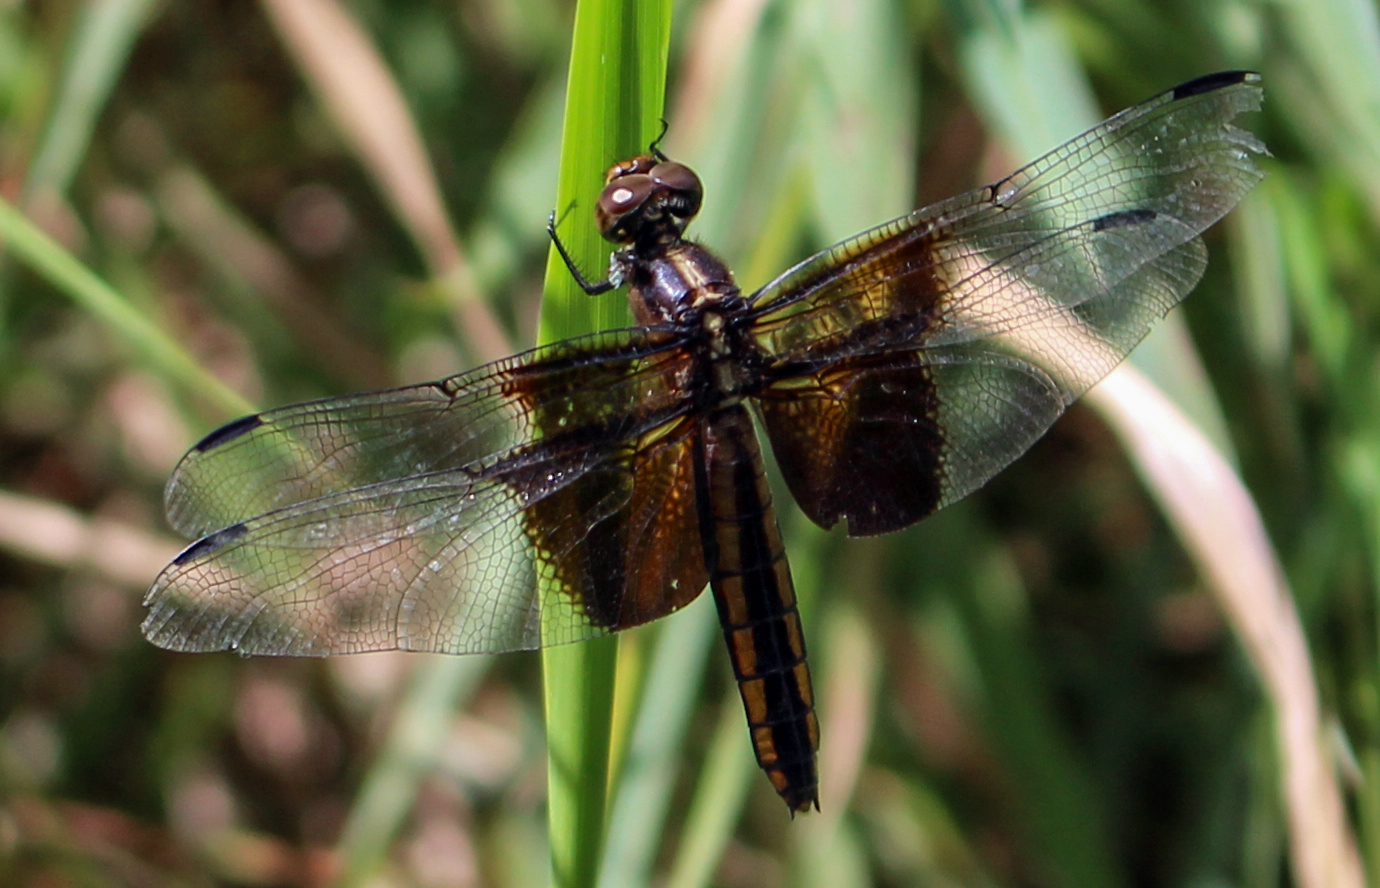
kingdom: Animalia
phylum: Arthropoda
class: Insecta
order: Odonata
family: Libellulidae
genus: Libellula
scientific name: Libellula luctuosa
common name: Widow skimmer
